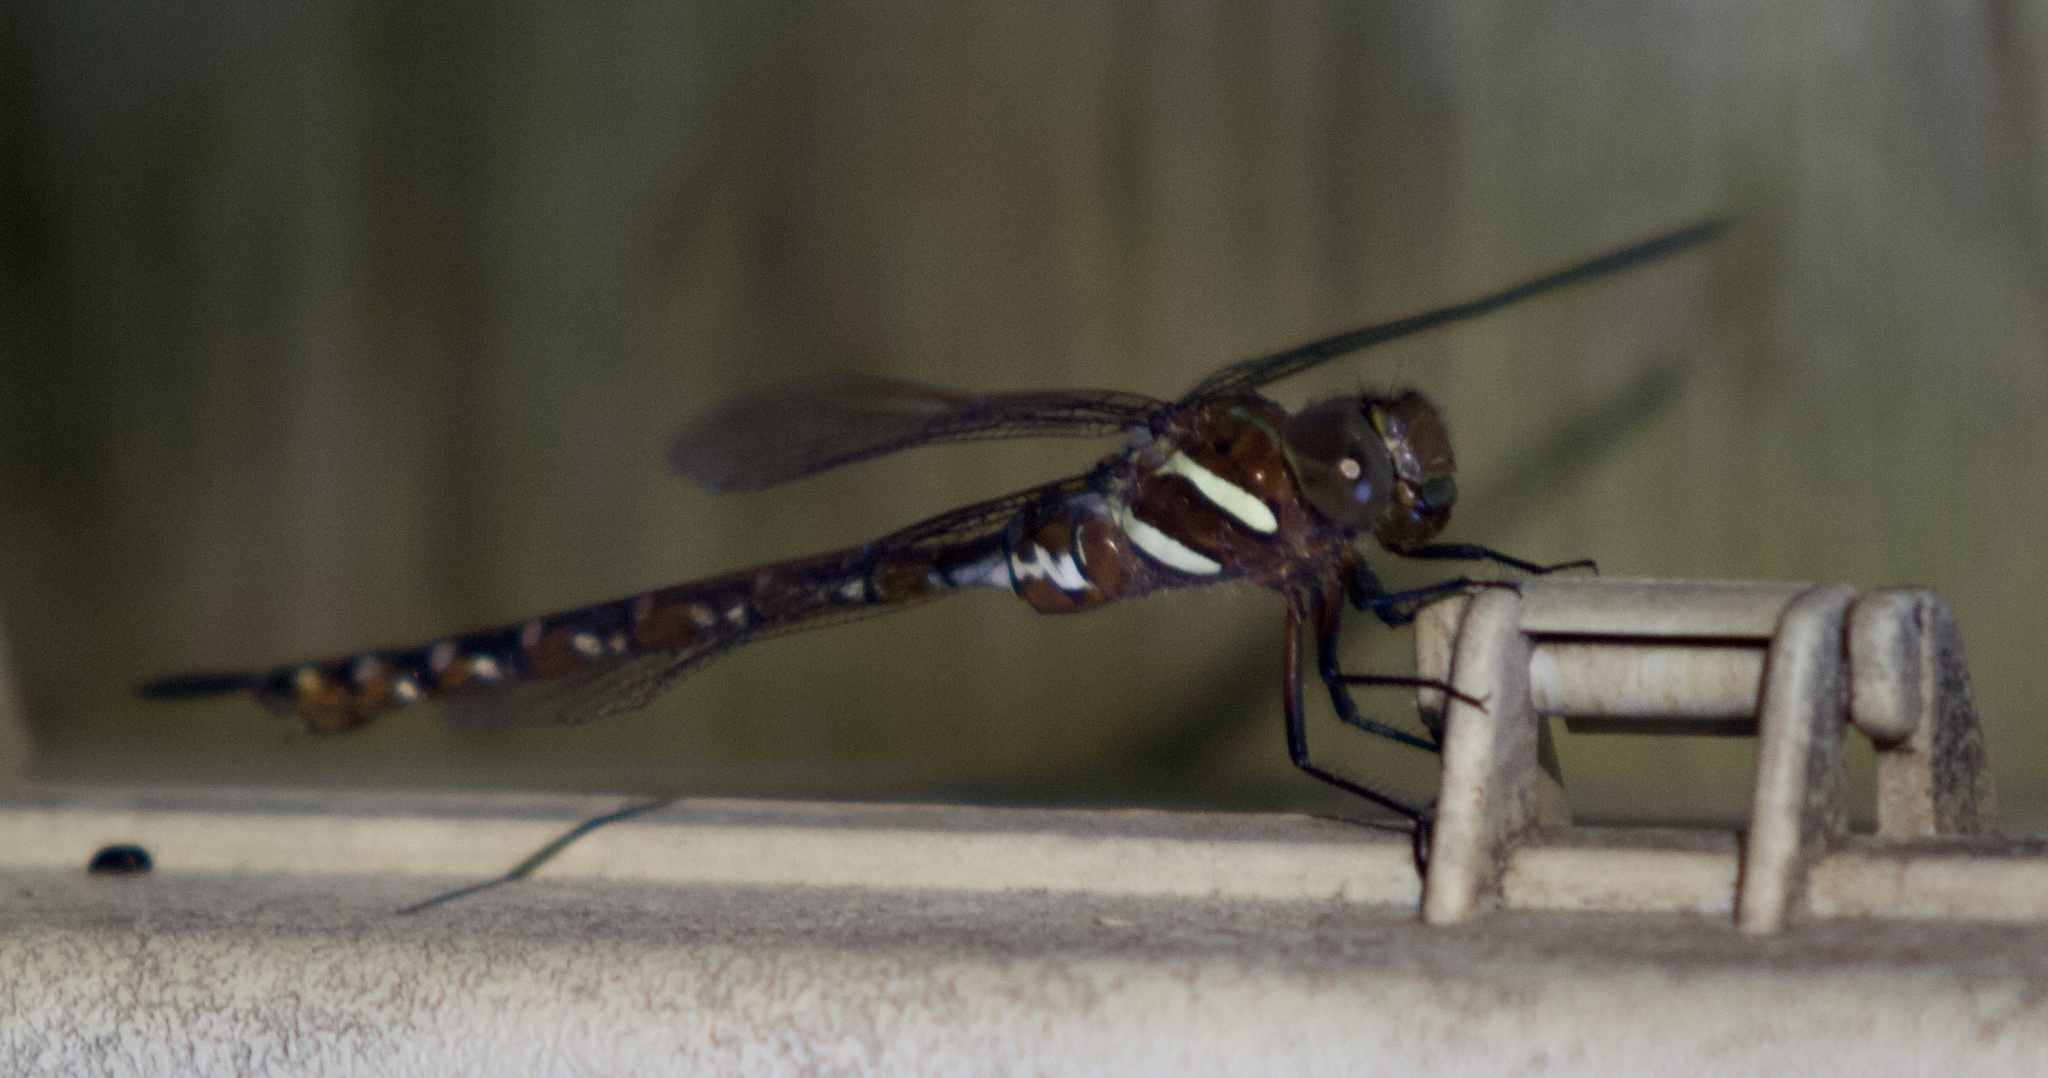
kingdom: Animalia
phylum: Arthropoda
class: Insecta
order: Odonata
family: Aeshnidae
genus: Aeshna
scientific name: Aeshna tuberculifera
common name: Aeschne à tubercules
